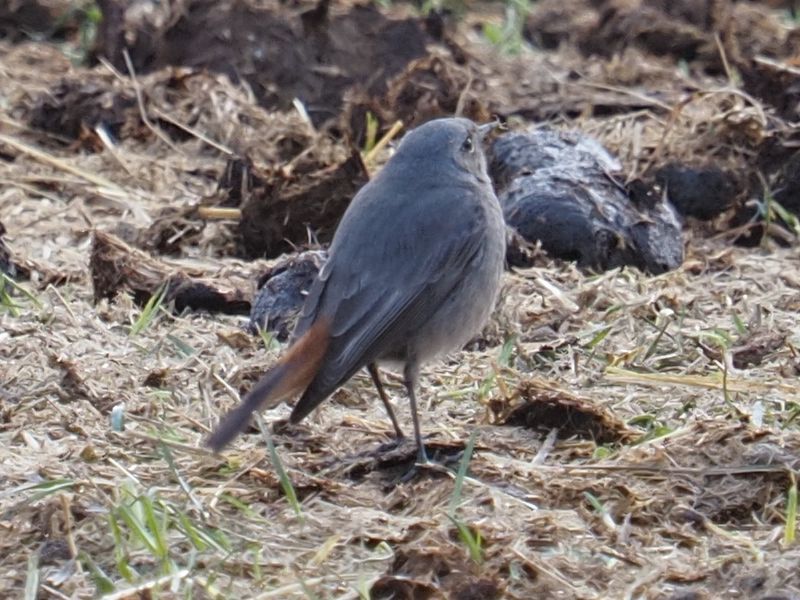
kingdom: Animalia
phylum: Chordata
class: Aves
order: Passeriformes
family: Muscicapidae
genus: Phoenicurus
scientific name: Phoenicurus ochruros
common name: Black redstart
